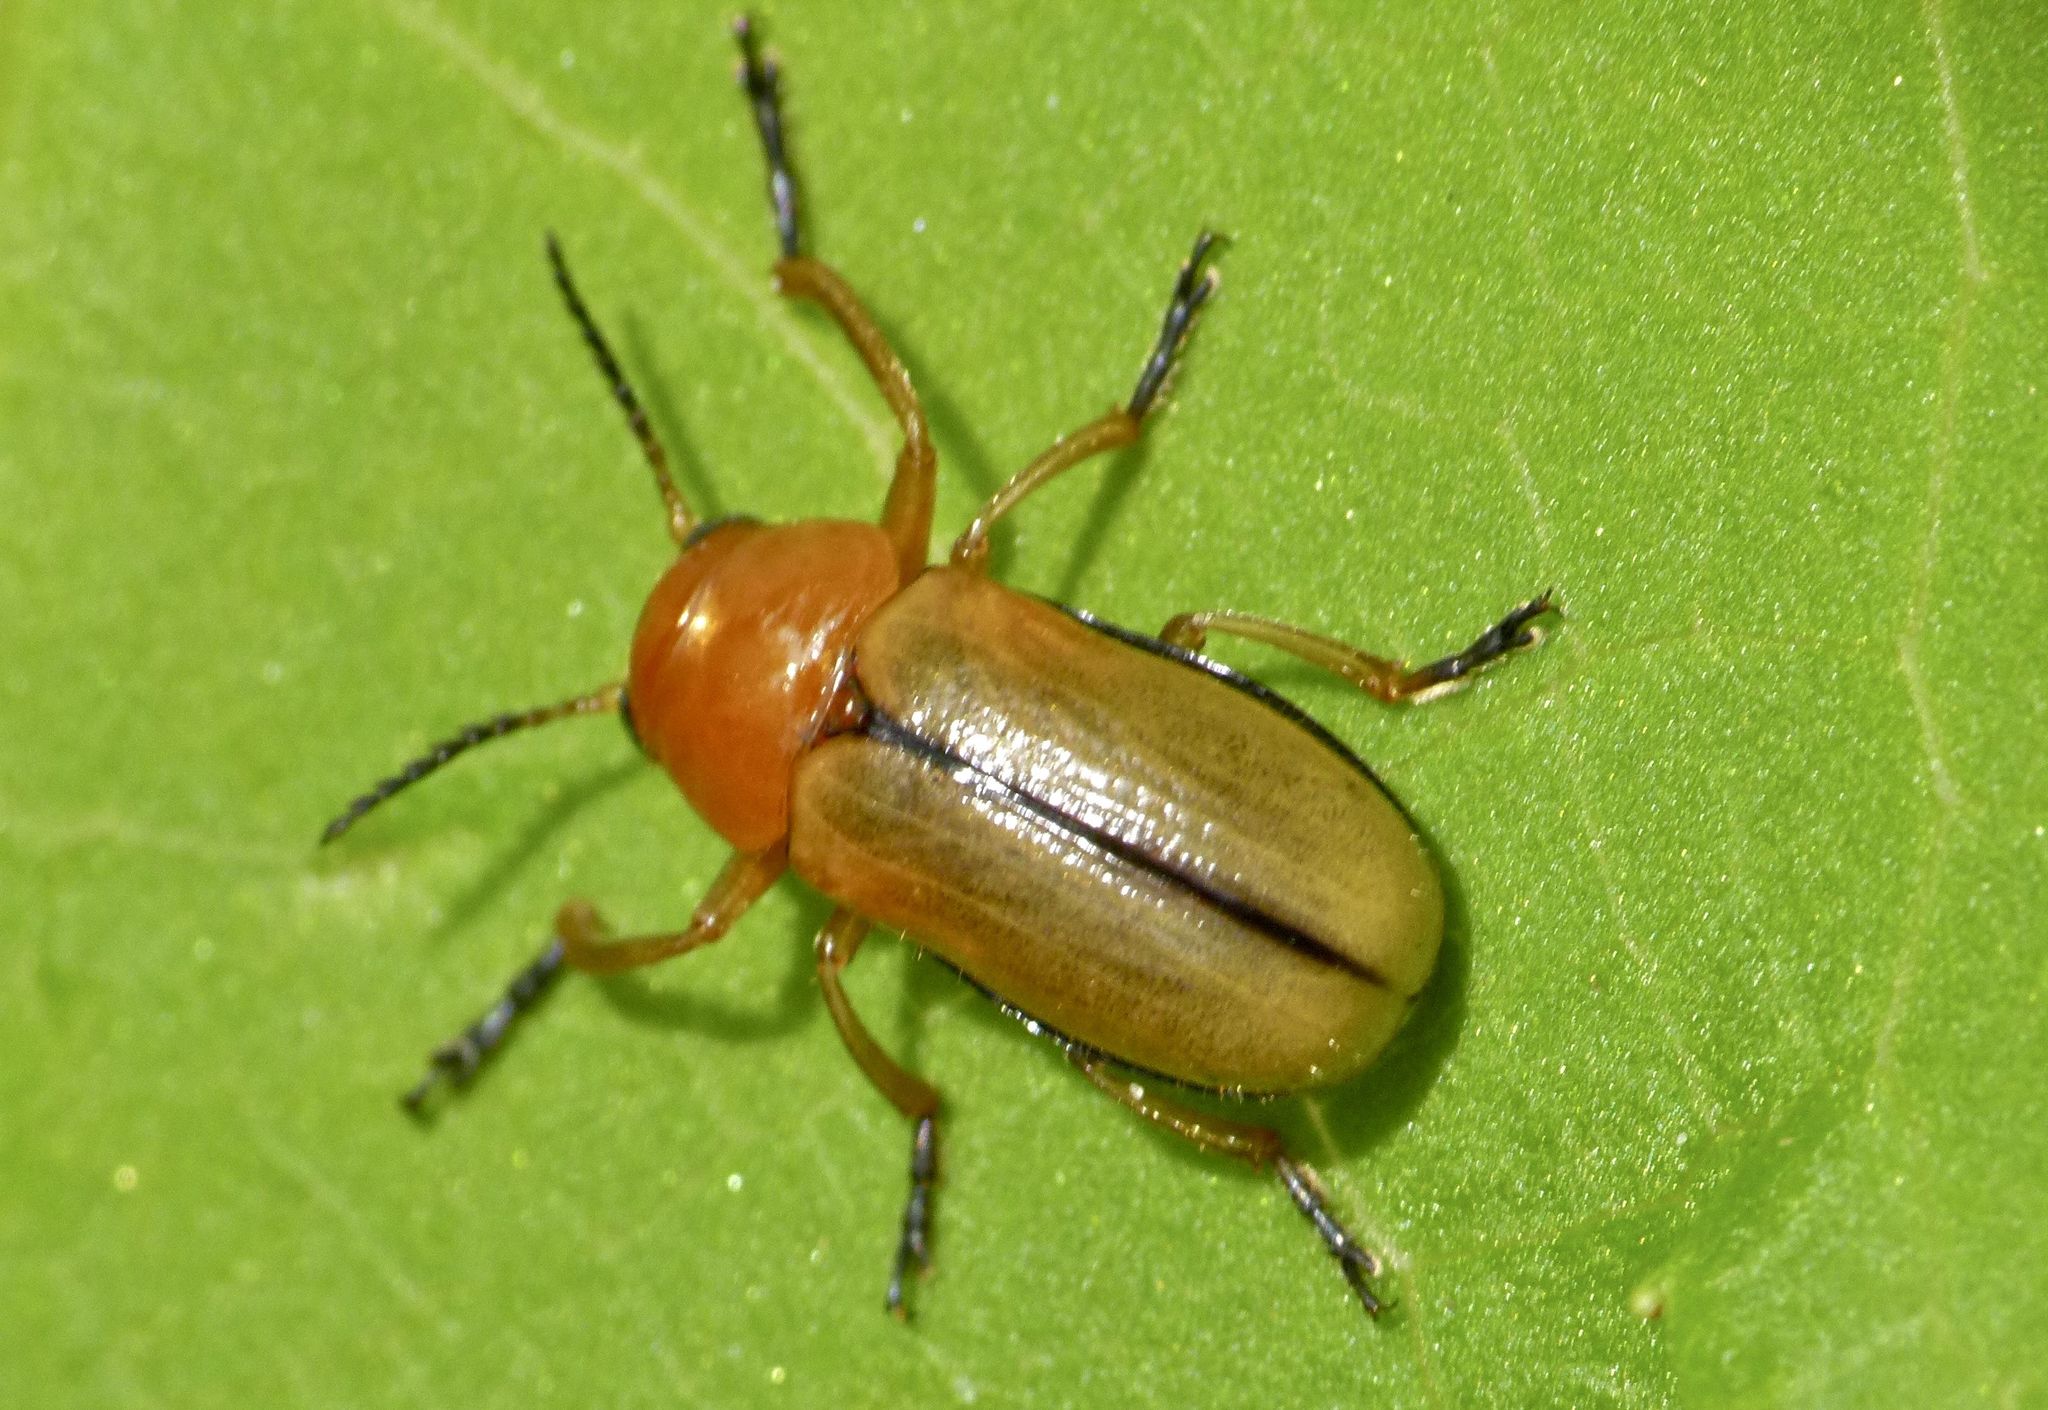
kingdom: Animalia
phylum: Arthropoda
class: Insecta
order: Coleoptera
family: Chrysomelidae
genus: Anomoea
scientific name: Anomoea laticlavia
